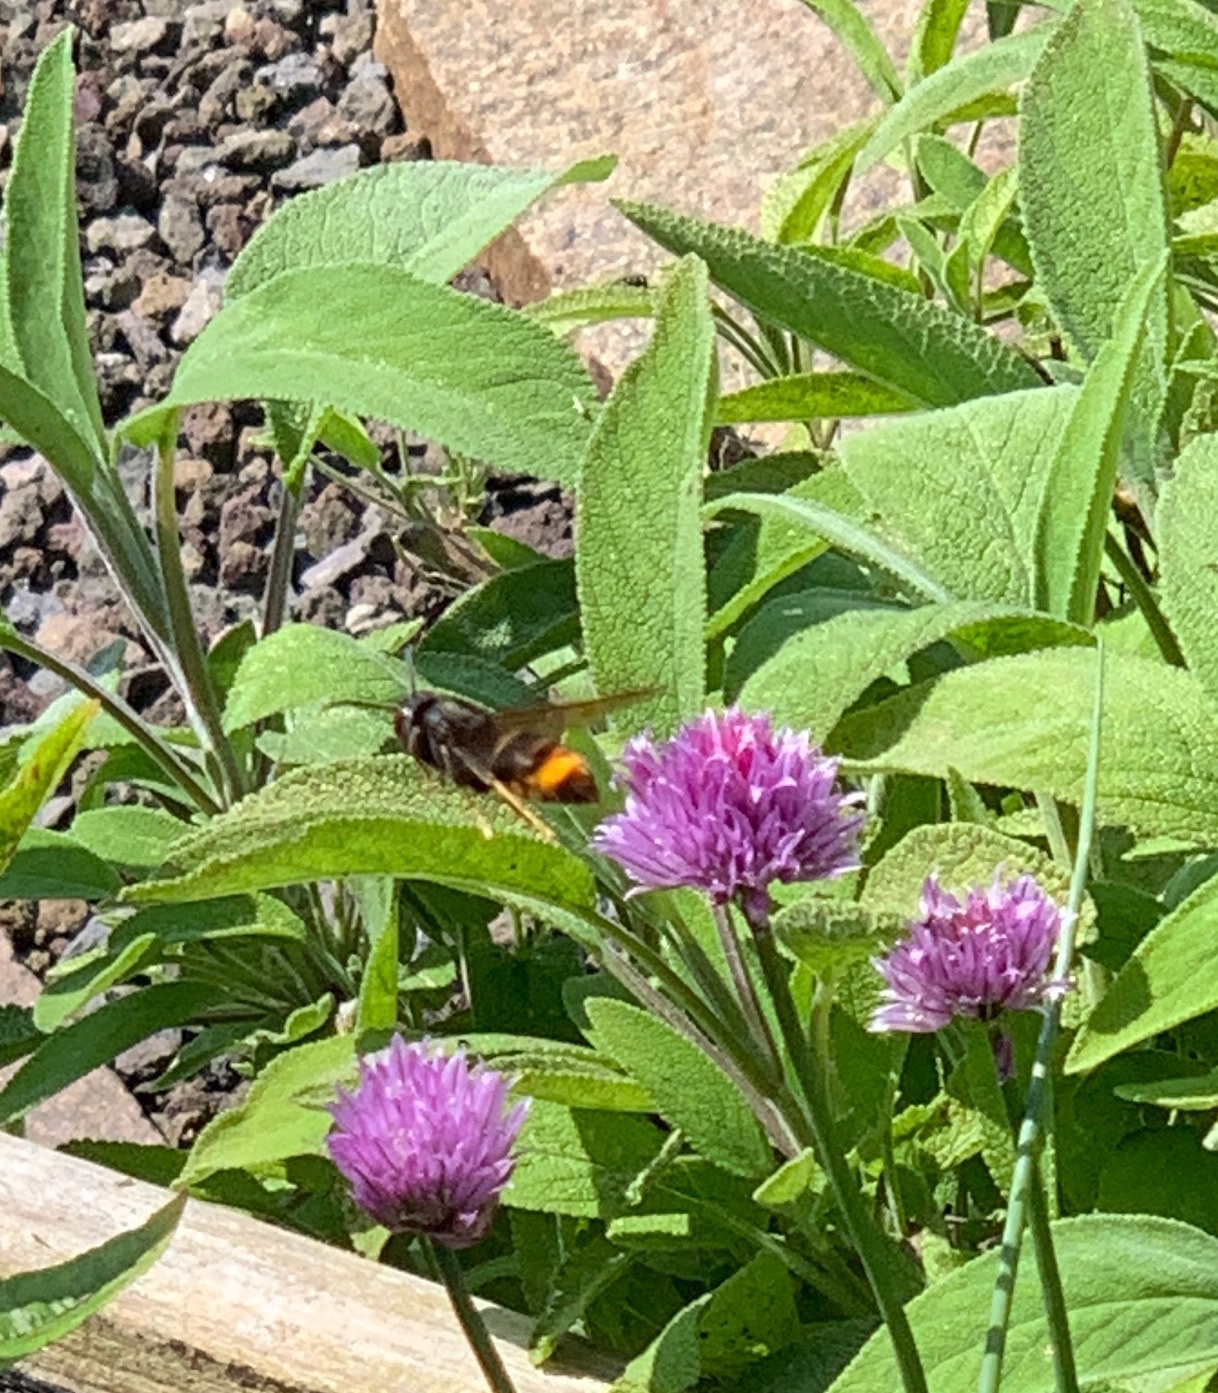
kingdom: Animalia
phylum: Arthropoda
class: Insecta
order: Hymenoptera
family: Vespidae
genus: Vespa
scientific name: Vespa velutina
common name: Asian hornet
